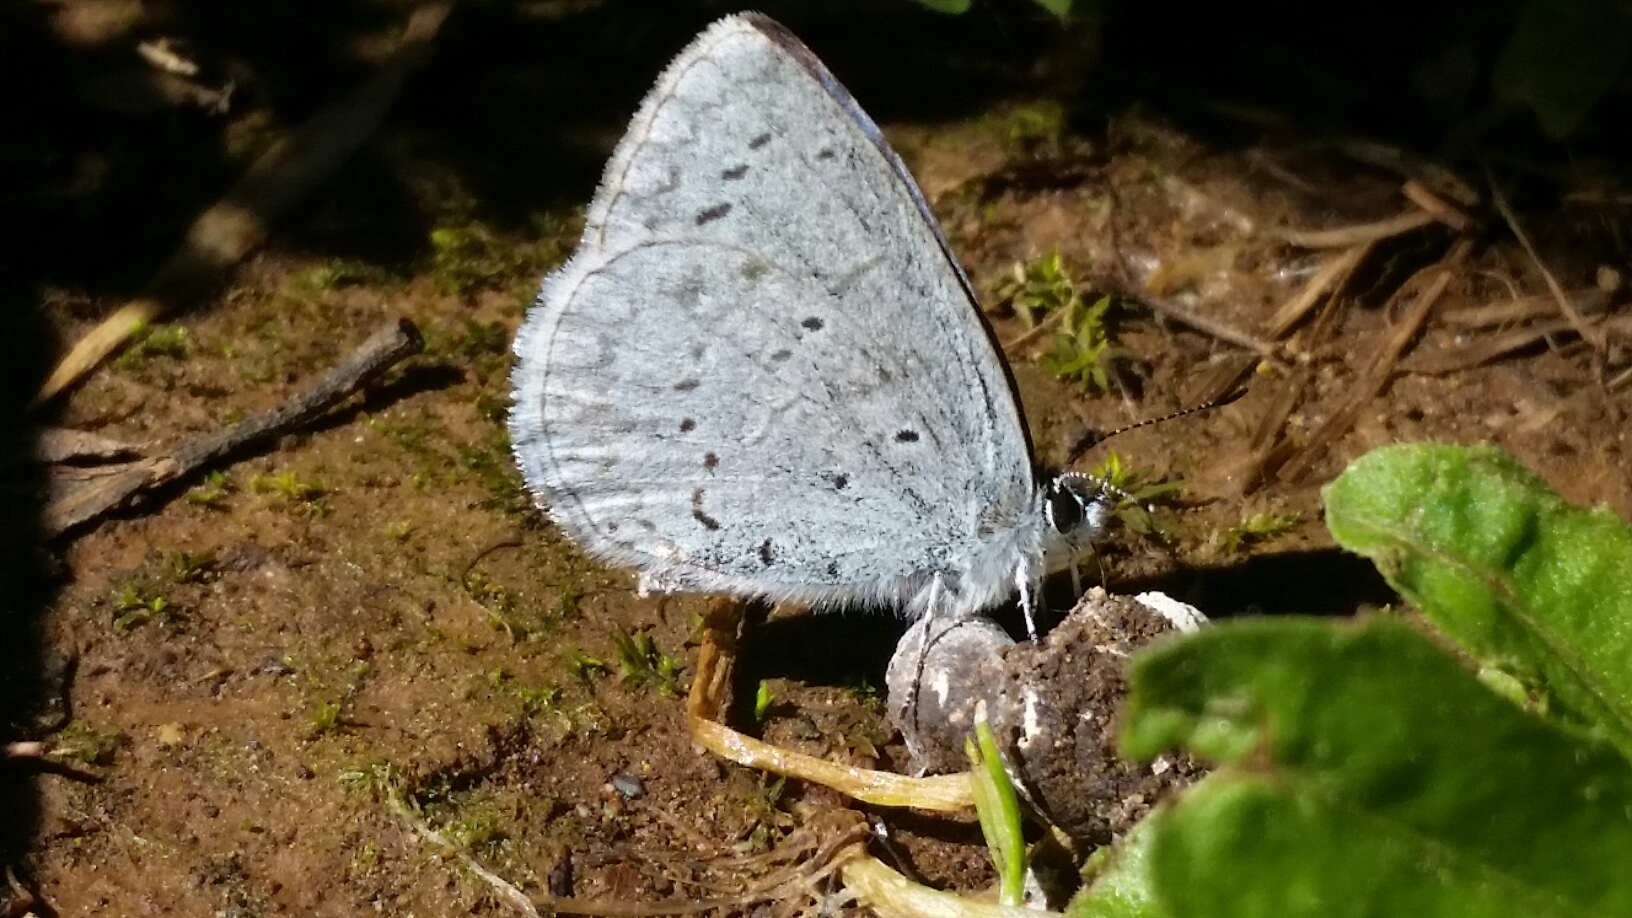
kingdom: Animalia
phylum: Arthropoda
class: Insecta
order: Lepidoptera
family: Lycaenidae
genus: Celastrina
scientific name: Celastrina ladon
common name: Spring azure
